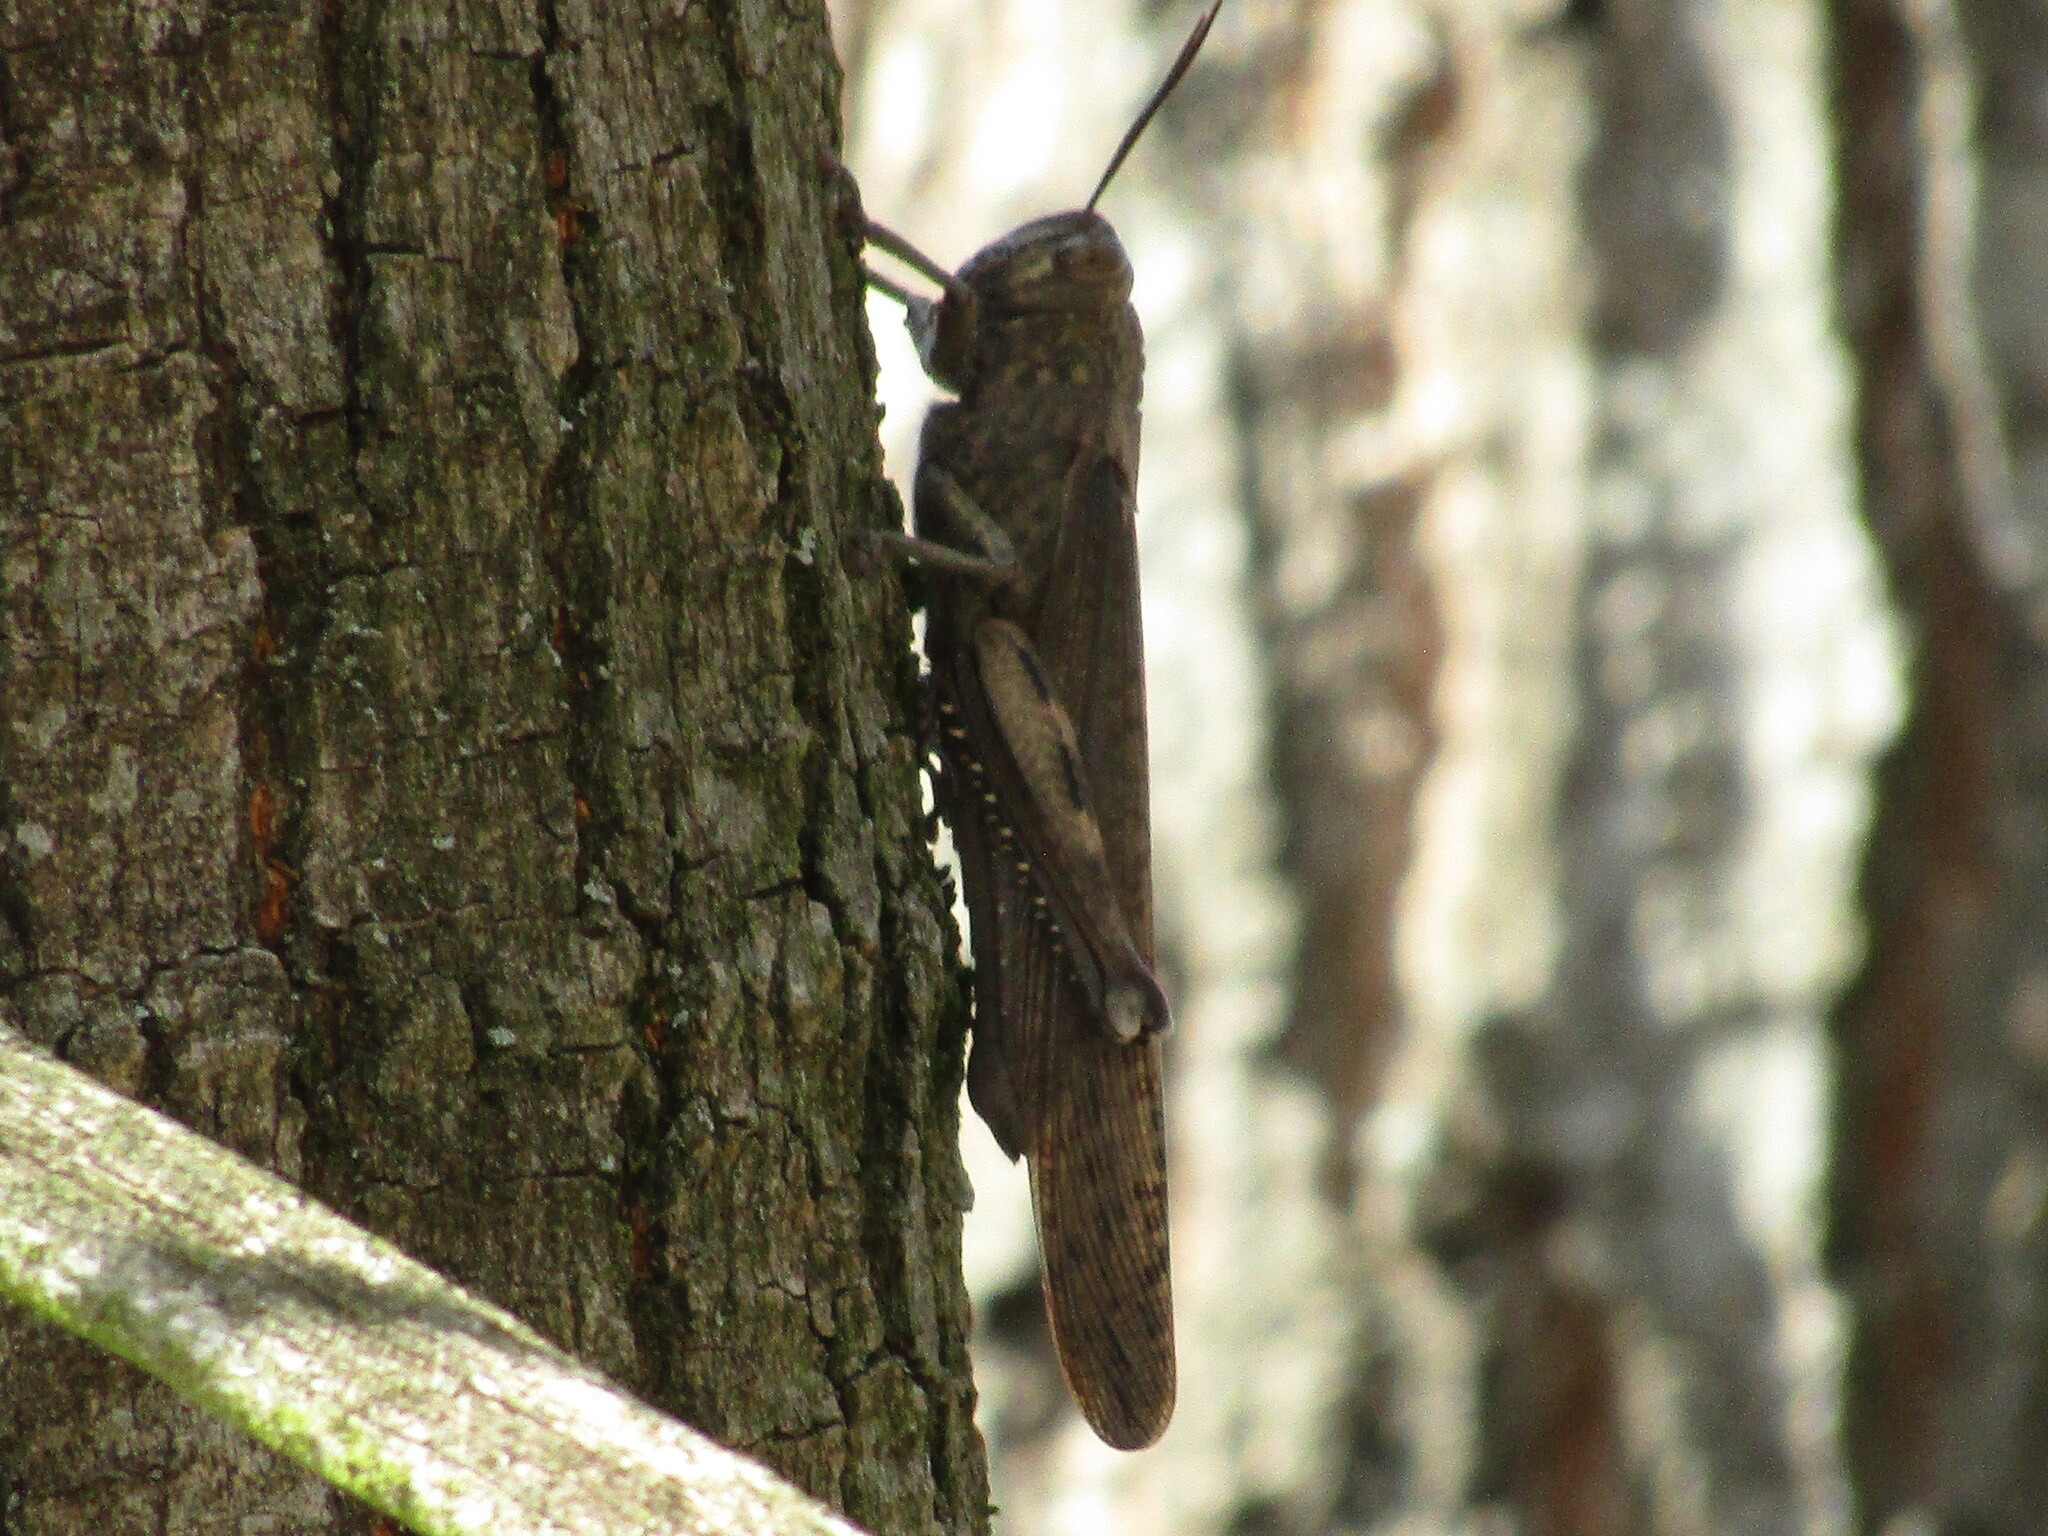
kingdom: Animalia
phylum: Arthropoda
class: Insecta
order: Orthoptera
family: Acrididae
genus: Anacridium
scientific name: Anacridium aegyptium
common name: Egyptian grasshopper
